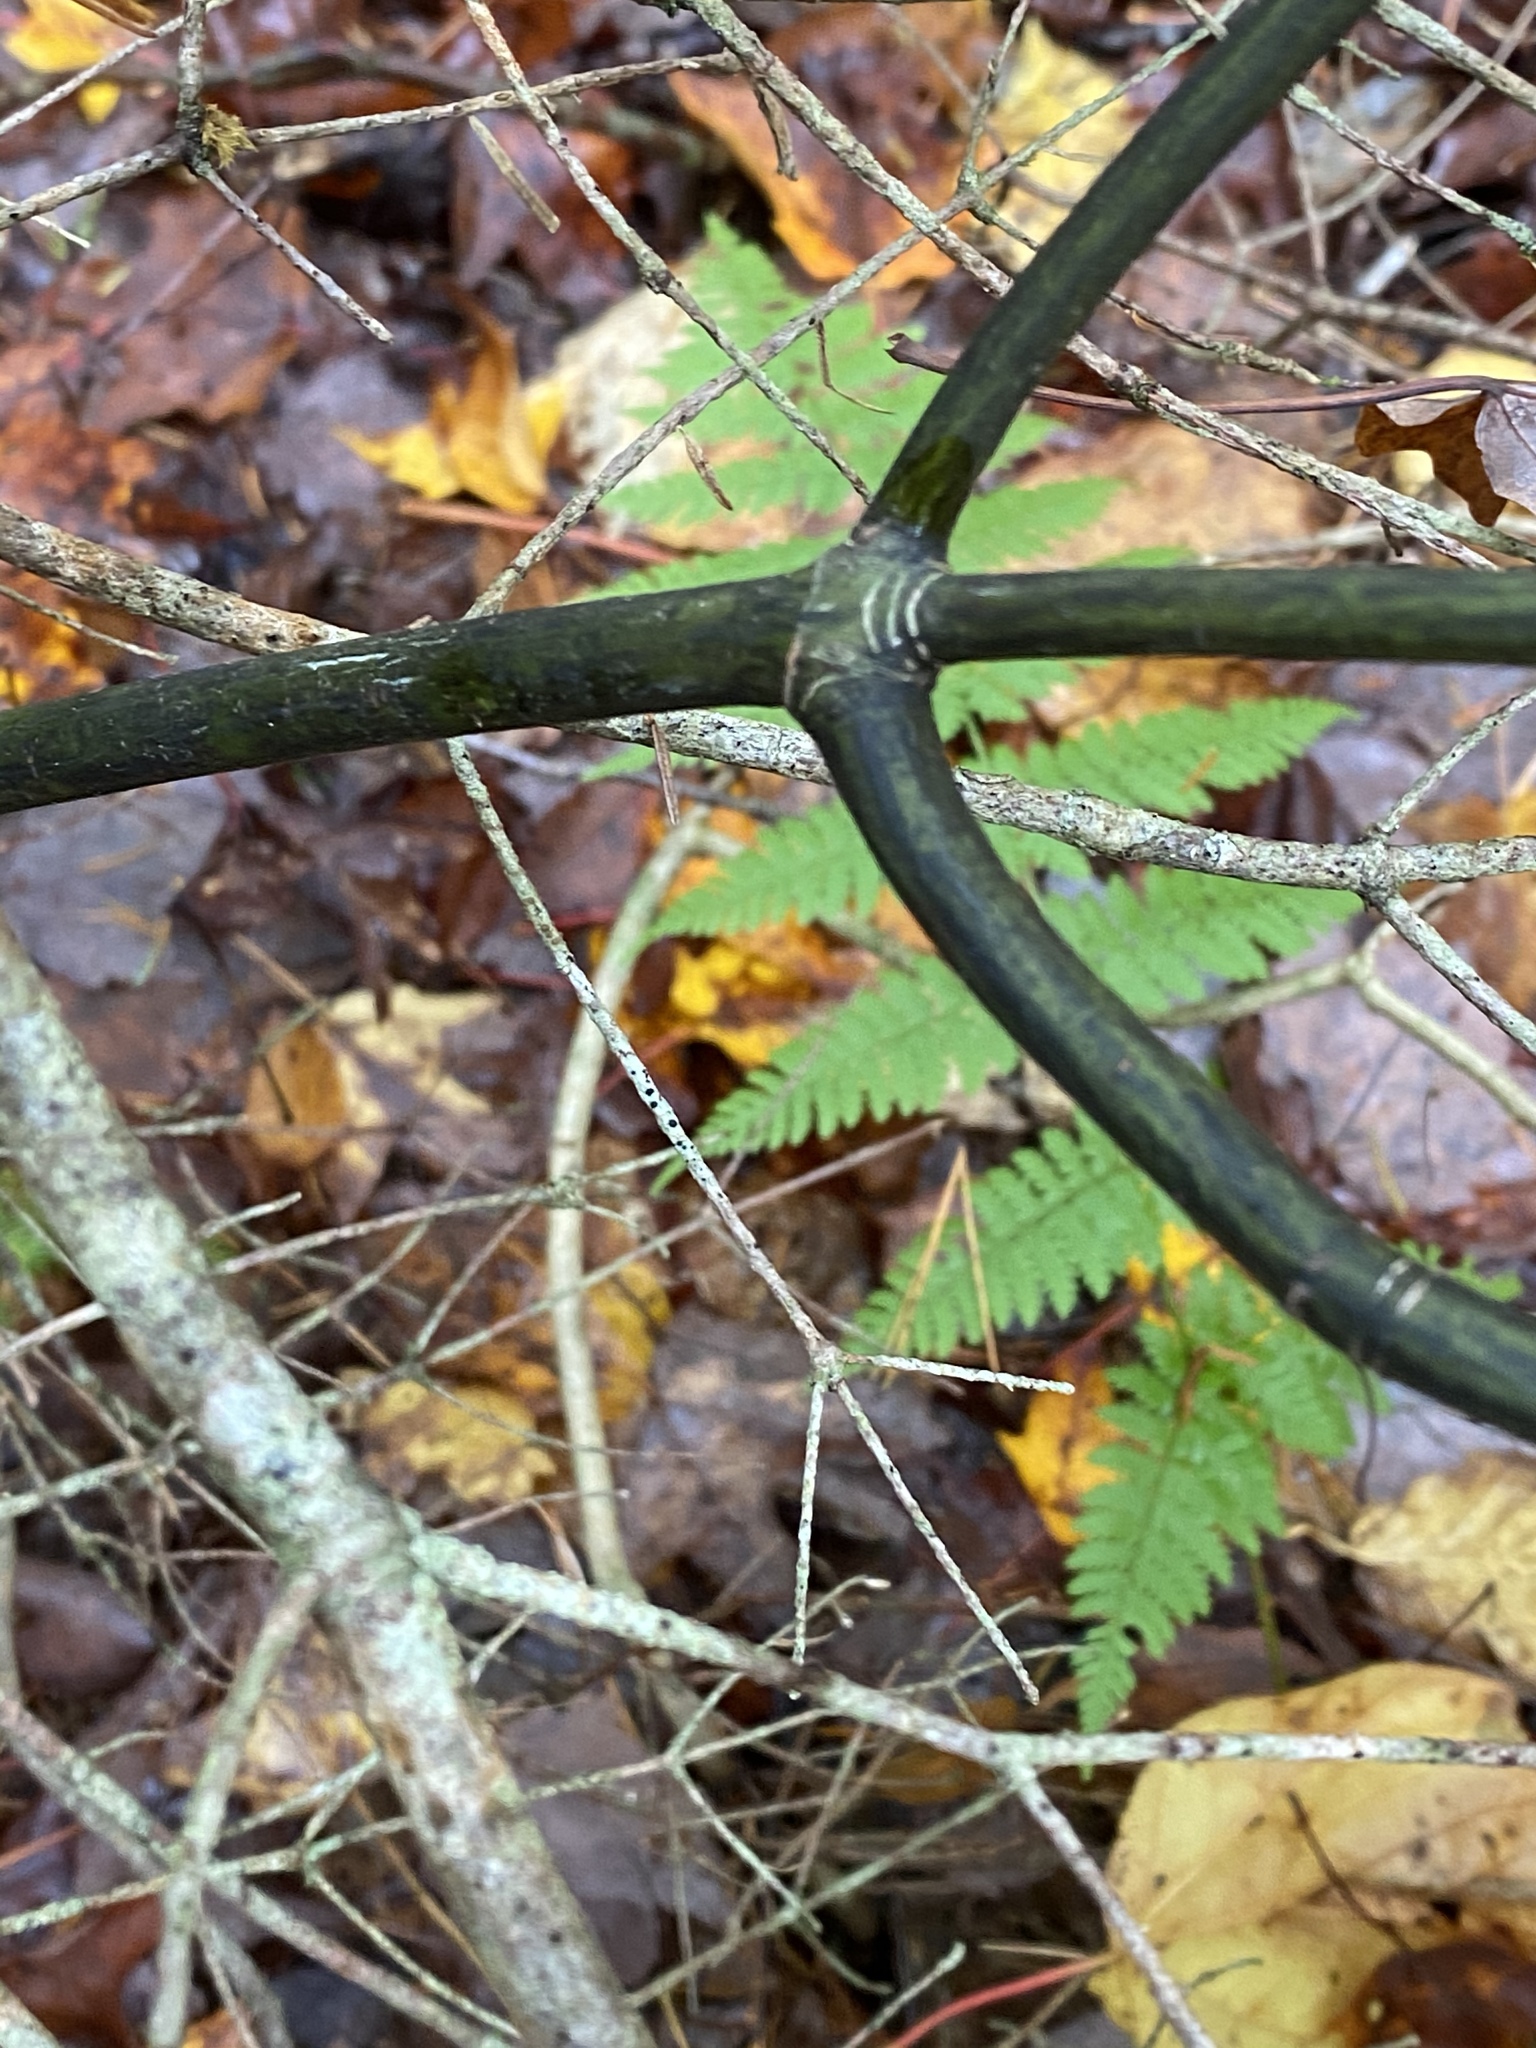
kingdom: Plantae
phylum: Tracheophyta
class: Magnoliopsida
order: Sapindales
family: Sapindaceae
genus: Acer
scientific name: Acer pensylvanicum
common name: Moosewood
